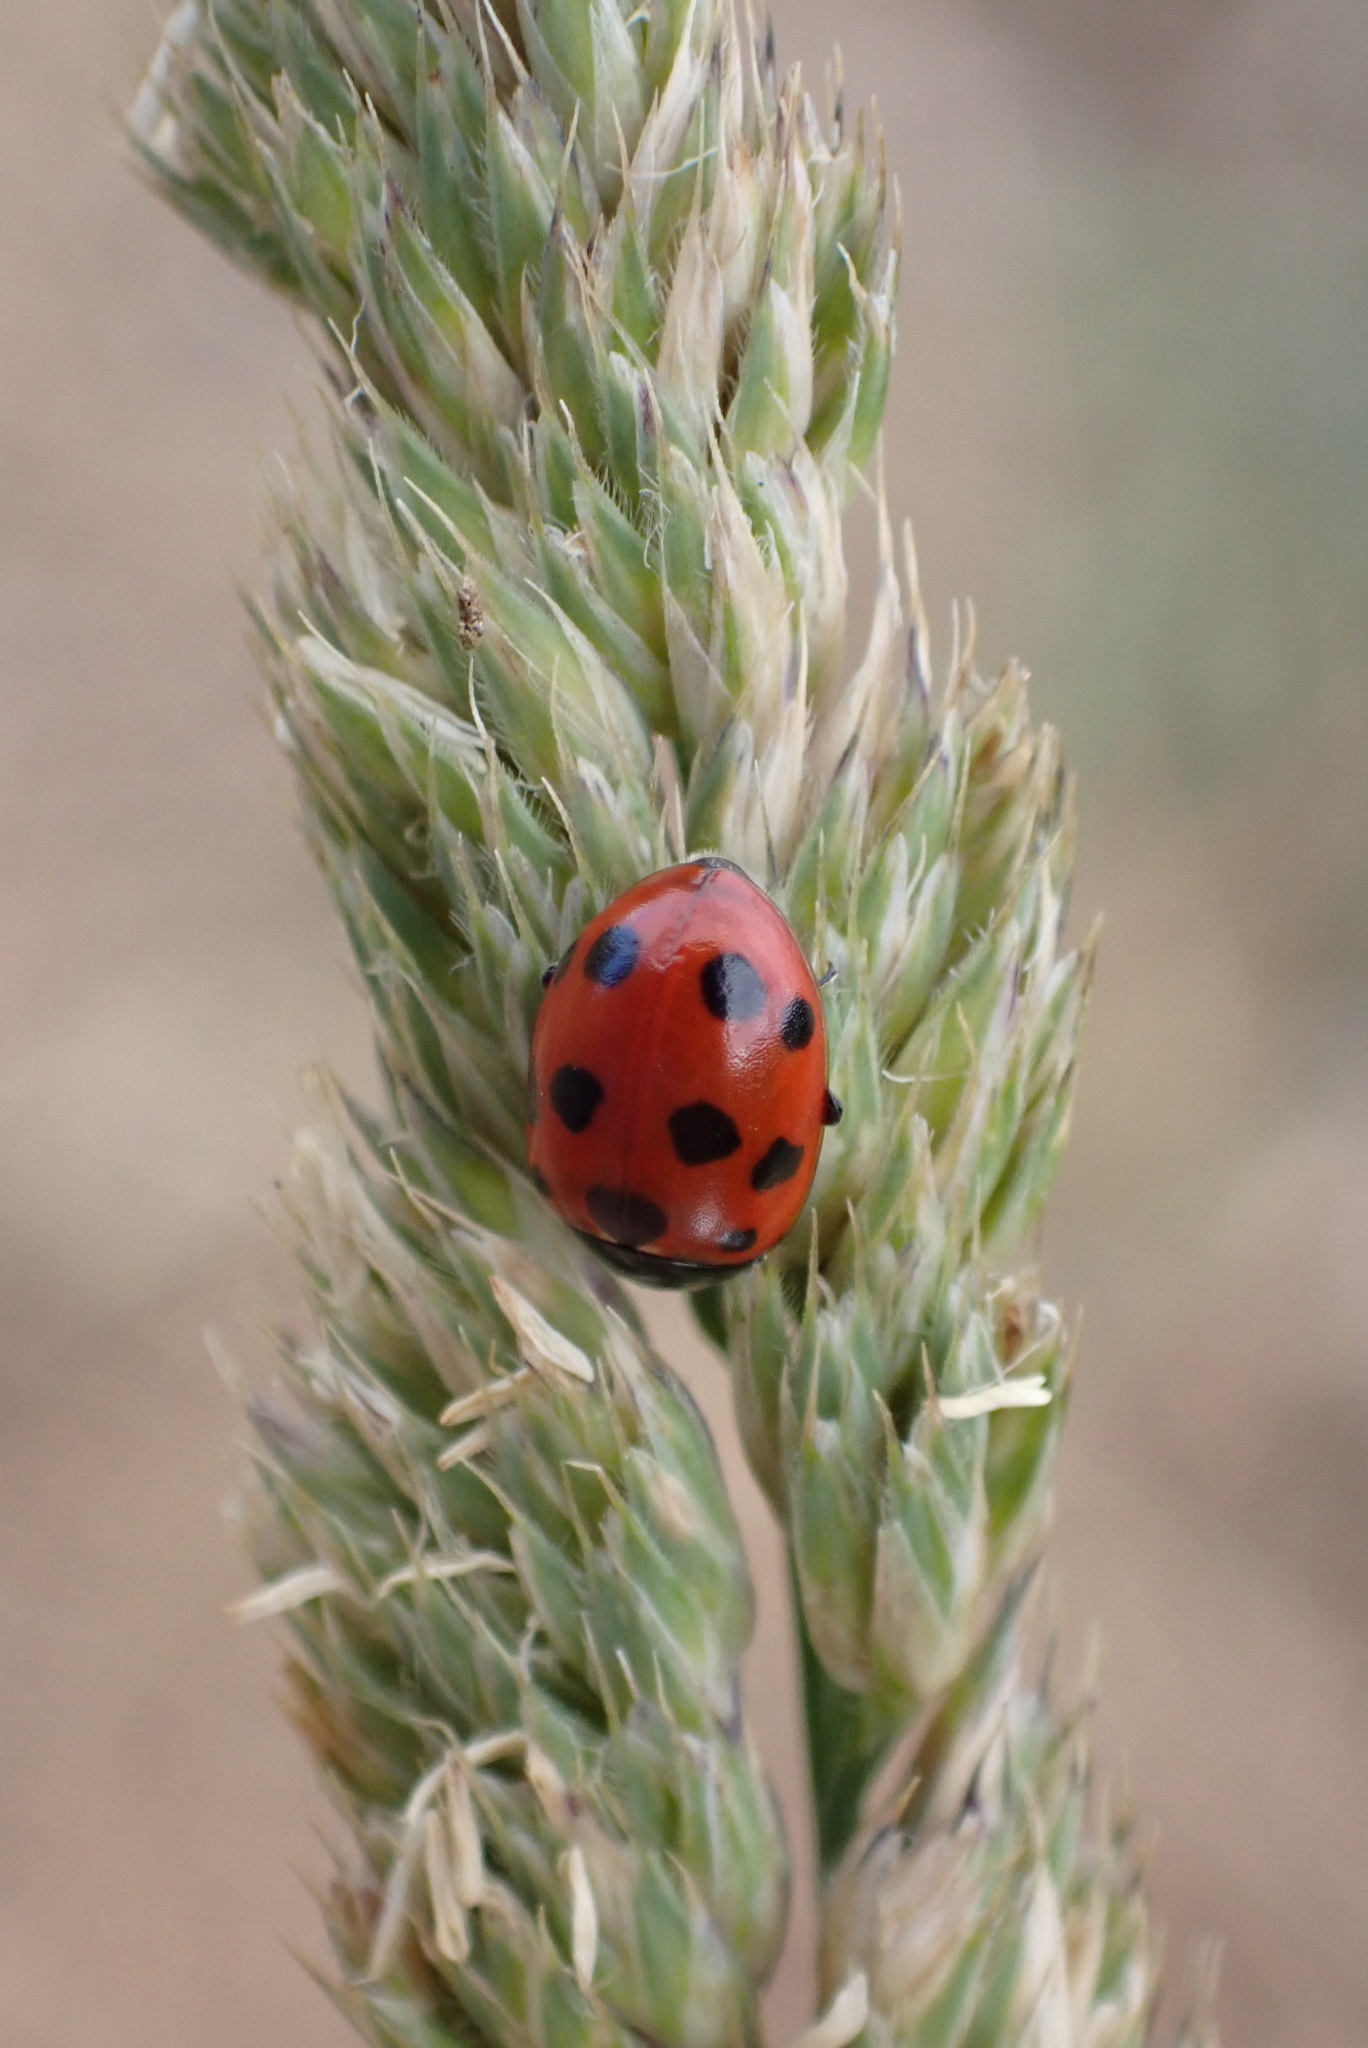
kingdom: Animalia
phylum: Arthropoda
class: Insecta
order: Coleoptera
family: Coccinellidae
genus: Coccinella
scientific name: Coccinella undecimpunctata
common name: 11-spot ladybird
